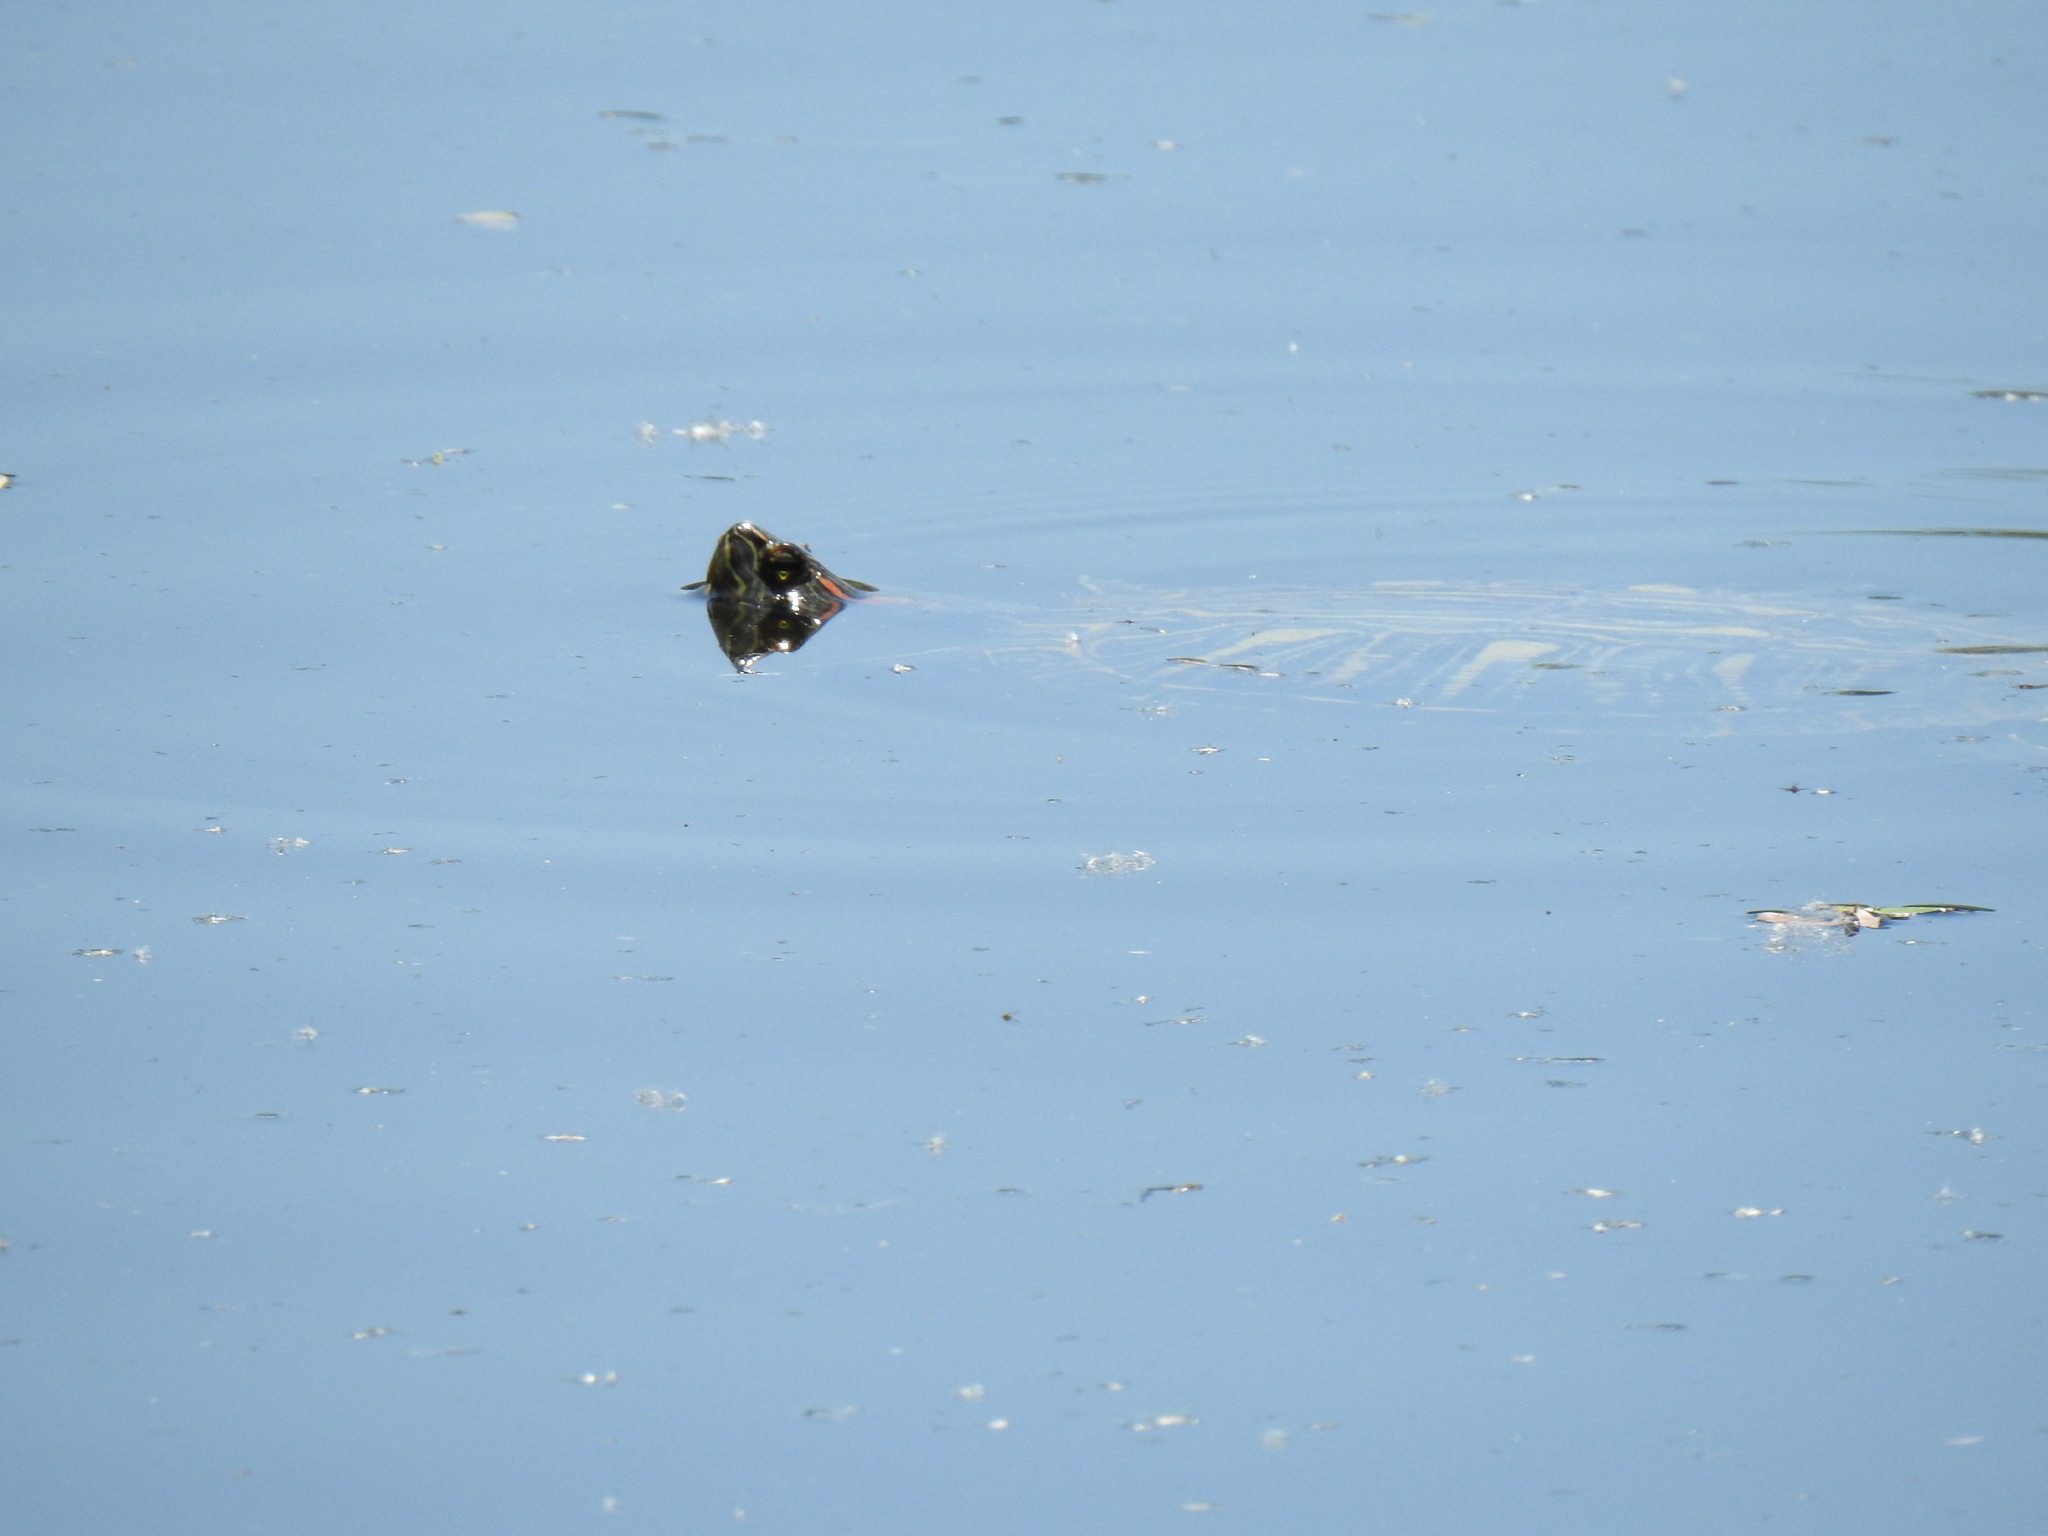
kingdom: Animalia
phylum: Chordata
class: Testudines
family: Emydidae
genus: Trachemys
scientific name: Trachemys scripta
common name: Slider
